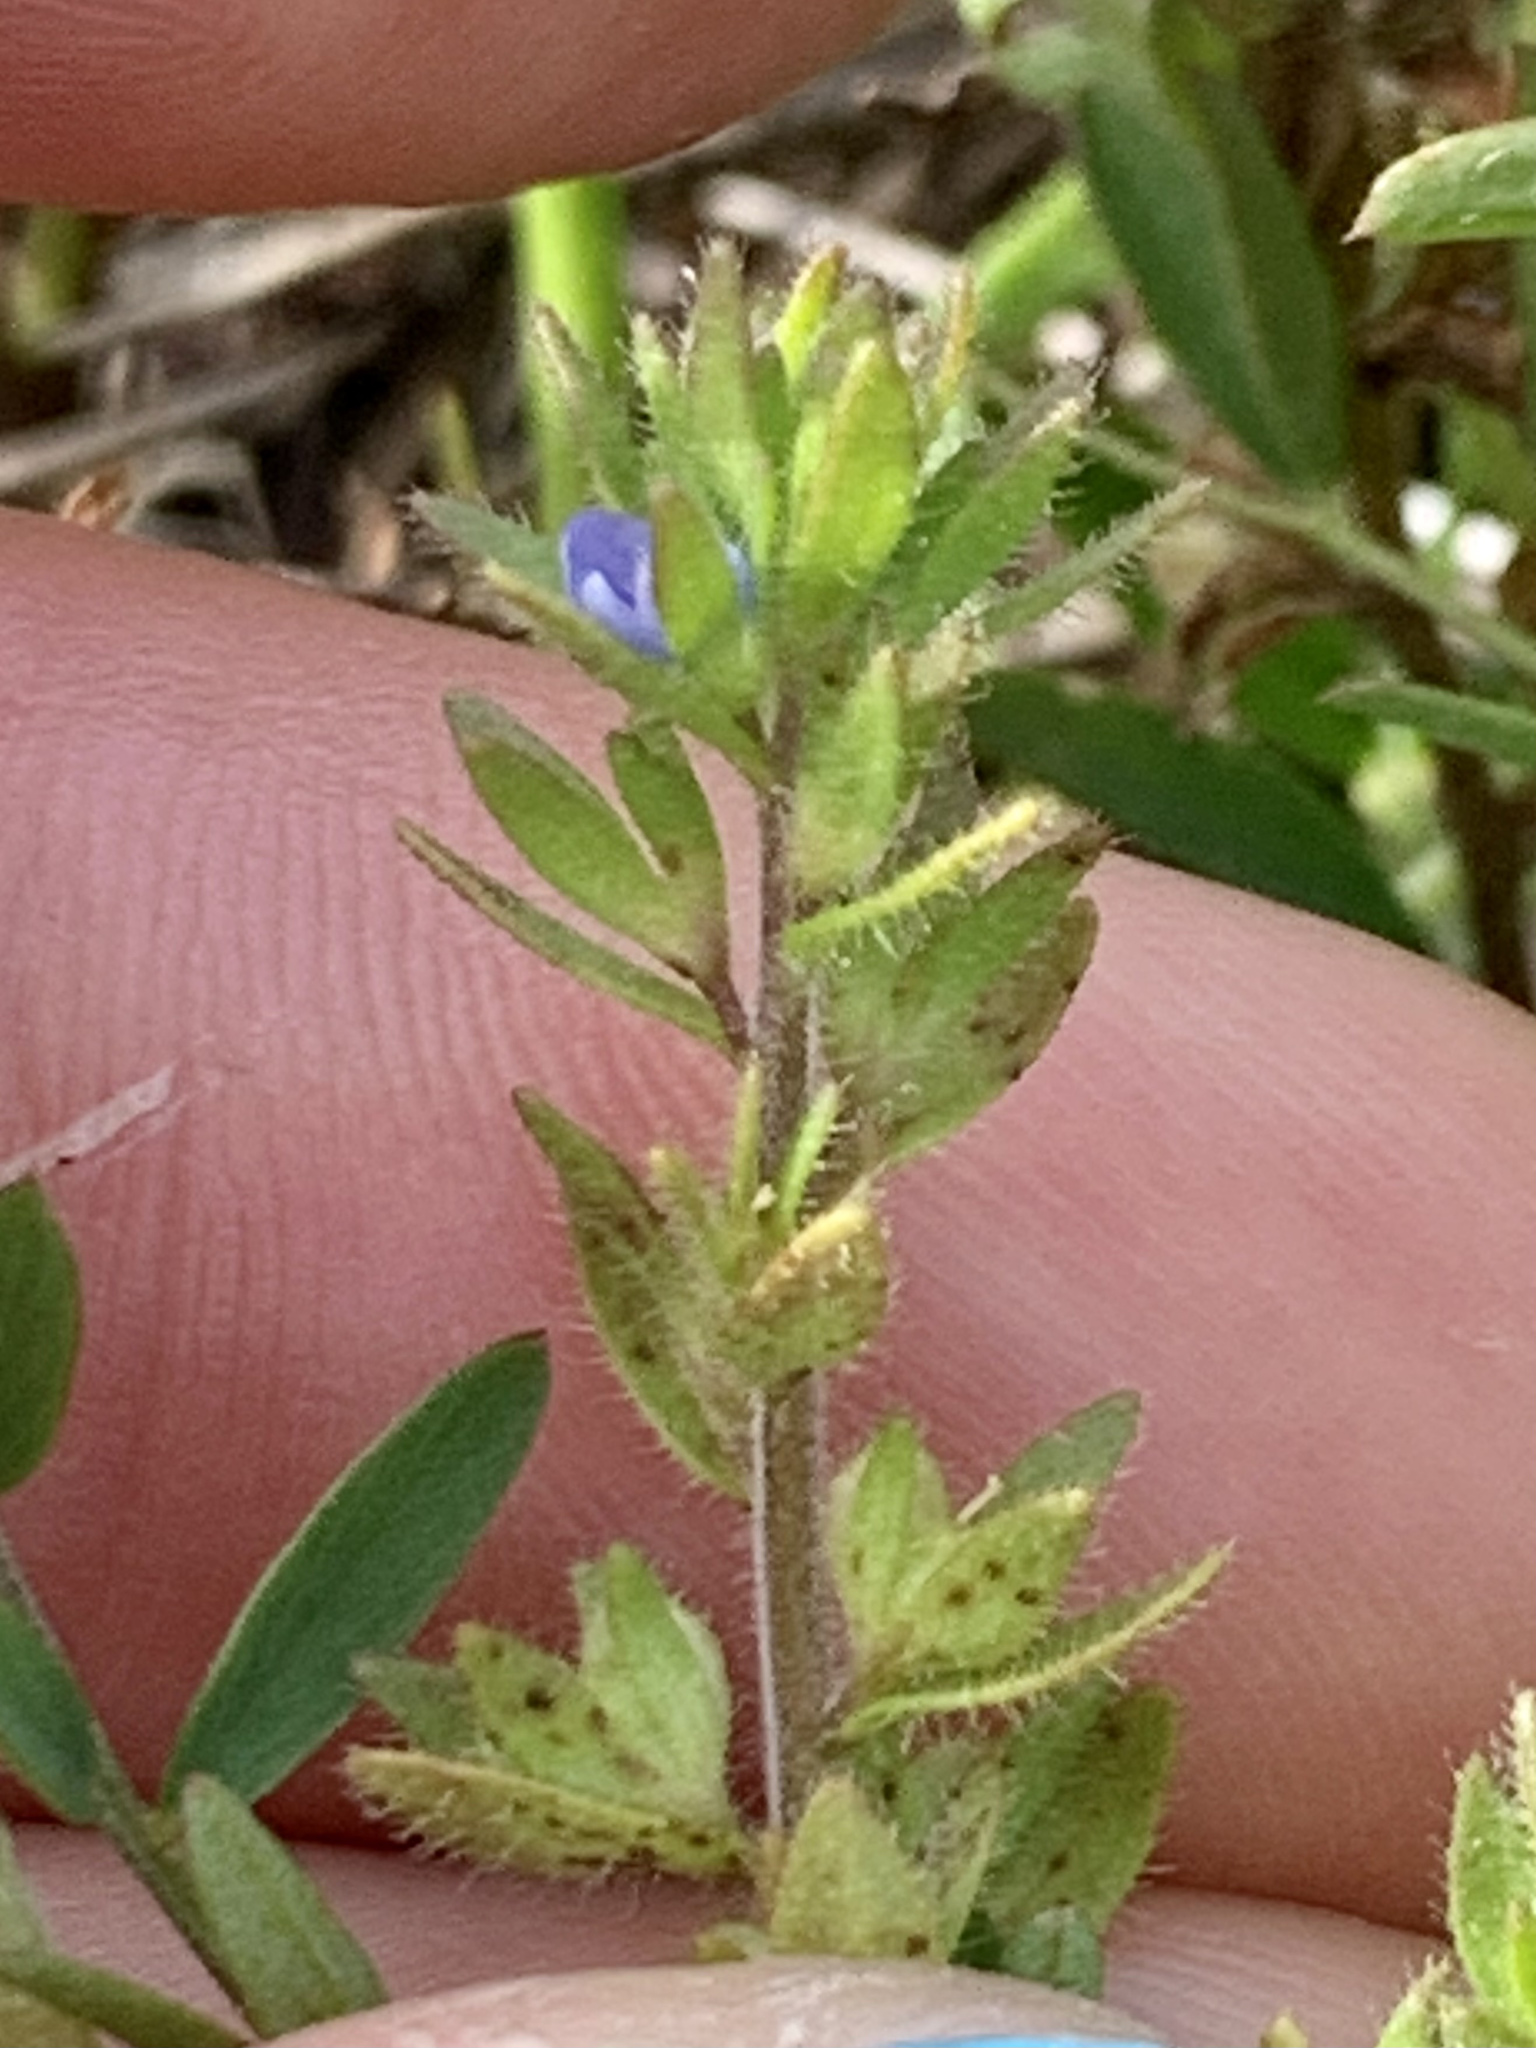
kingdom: Plantae
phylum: Tracheophyta
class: Magnoliopsida
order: Lamiales
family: Plantaginaceae
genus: Veronica
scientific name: Veronica arvensis
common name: Corn speedwell
